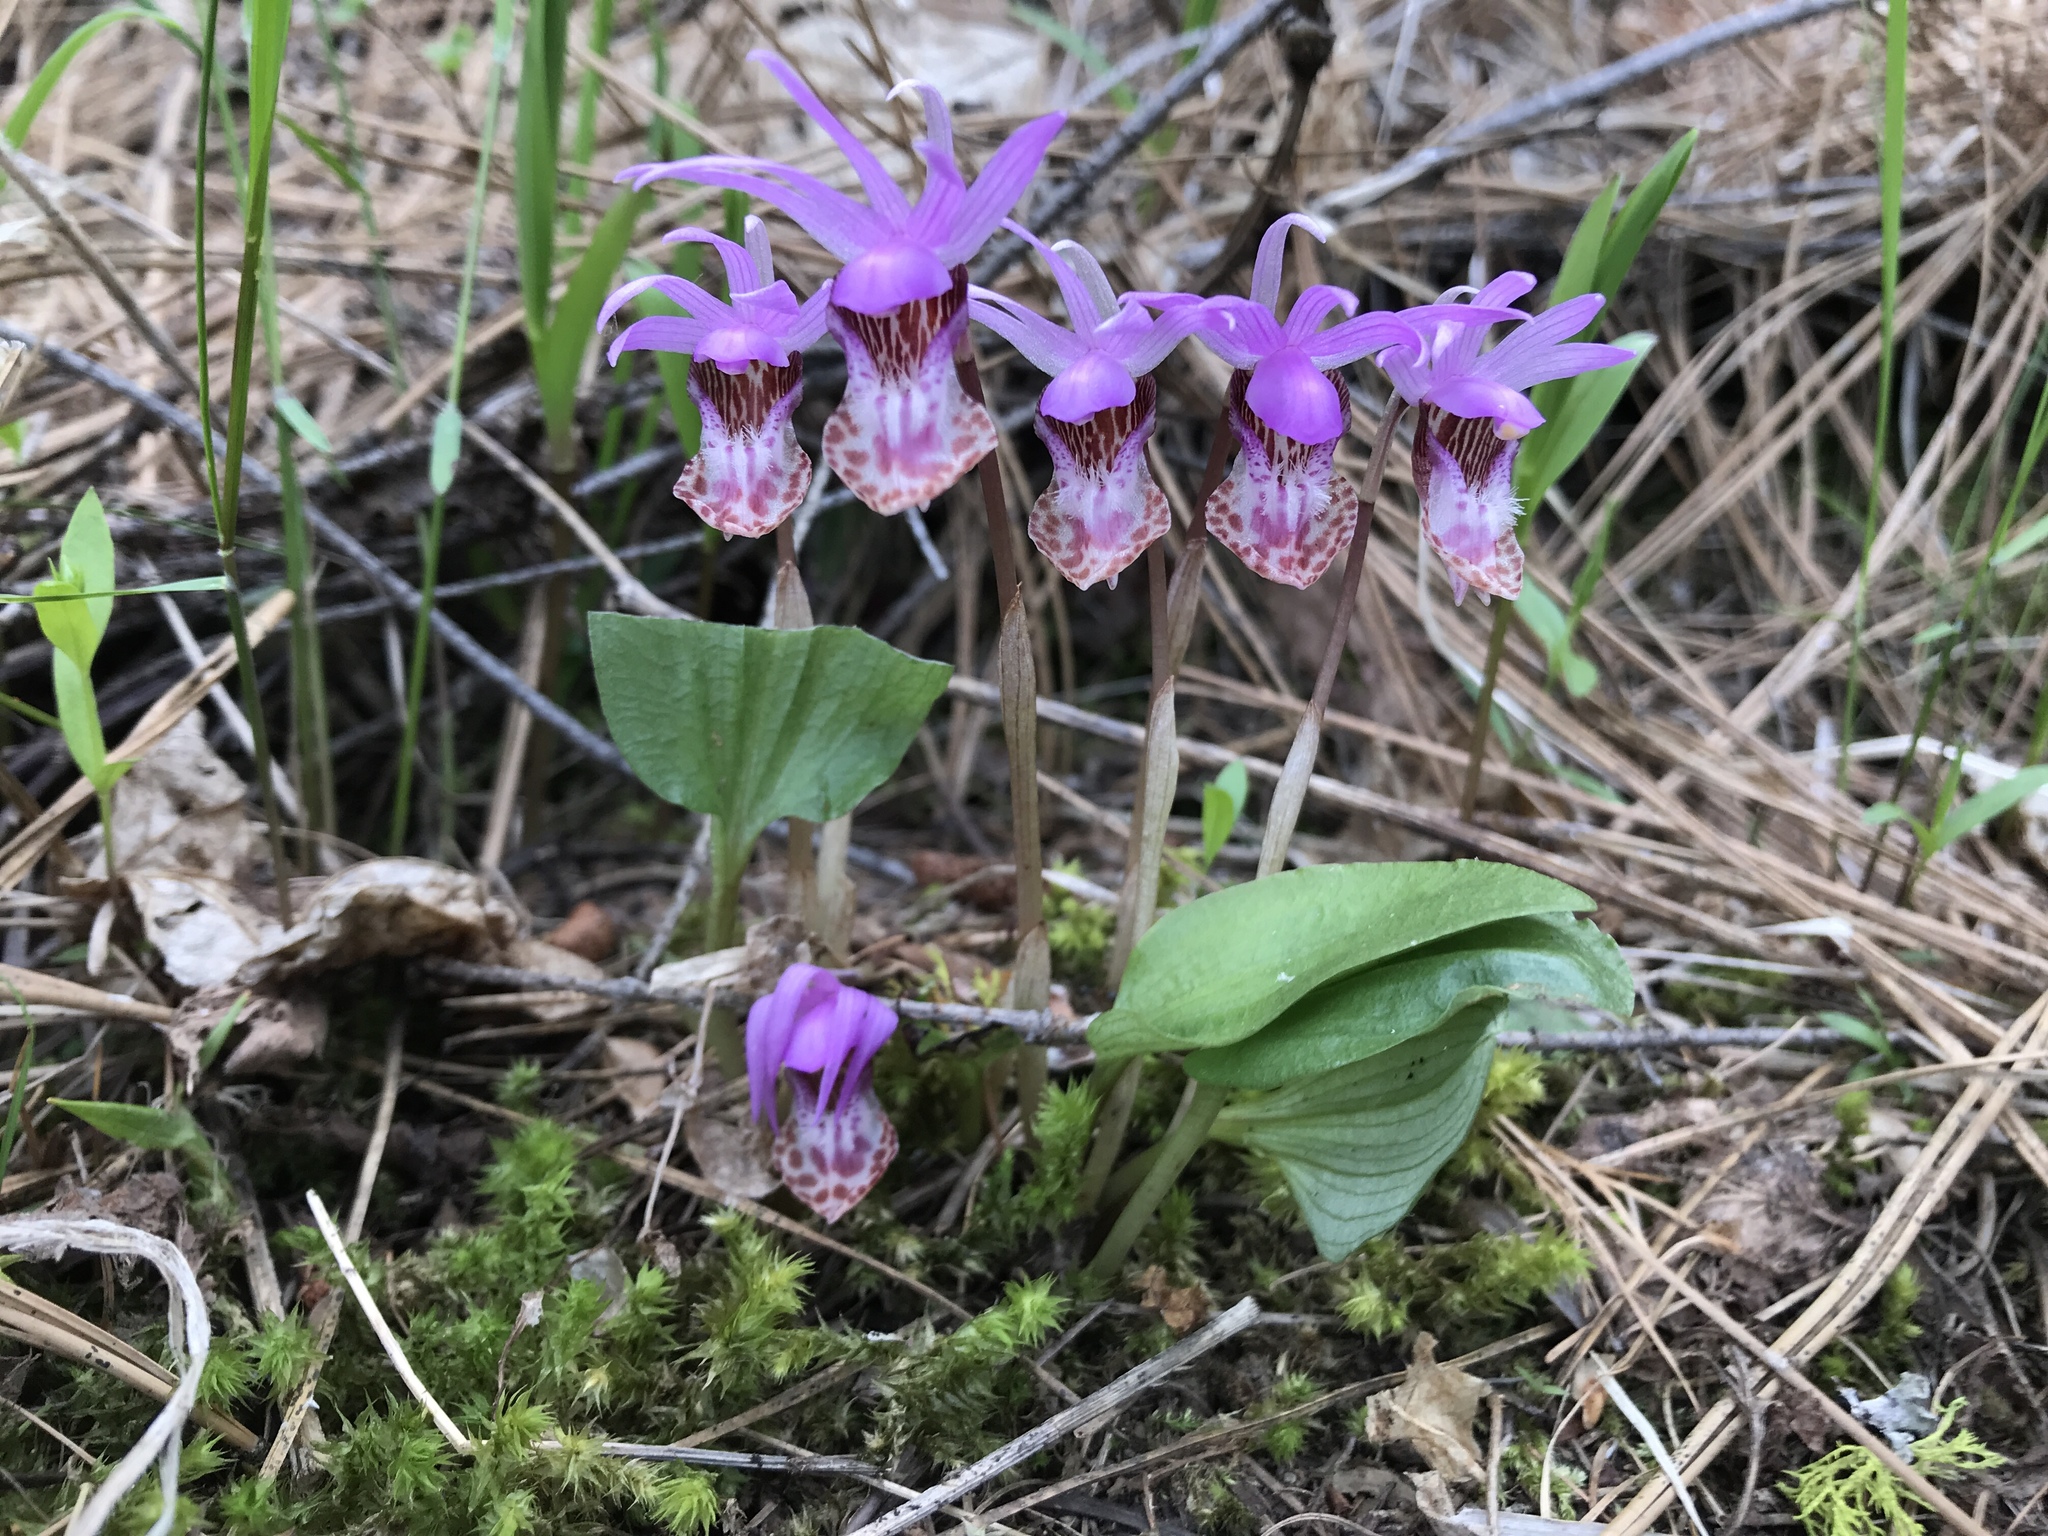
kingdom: Plantae
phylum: Tracheophyta
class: Liliopsida
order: Asparagales
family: Orchidaceae
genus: Calypso
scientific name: Calypso bulbosa
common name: Calypso
